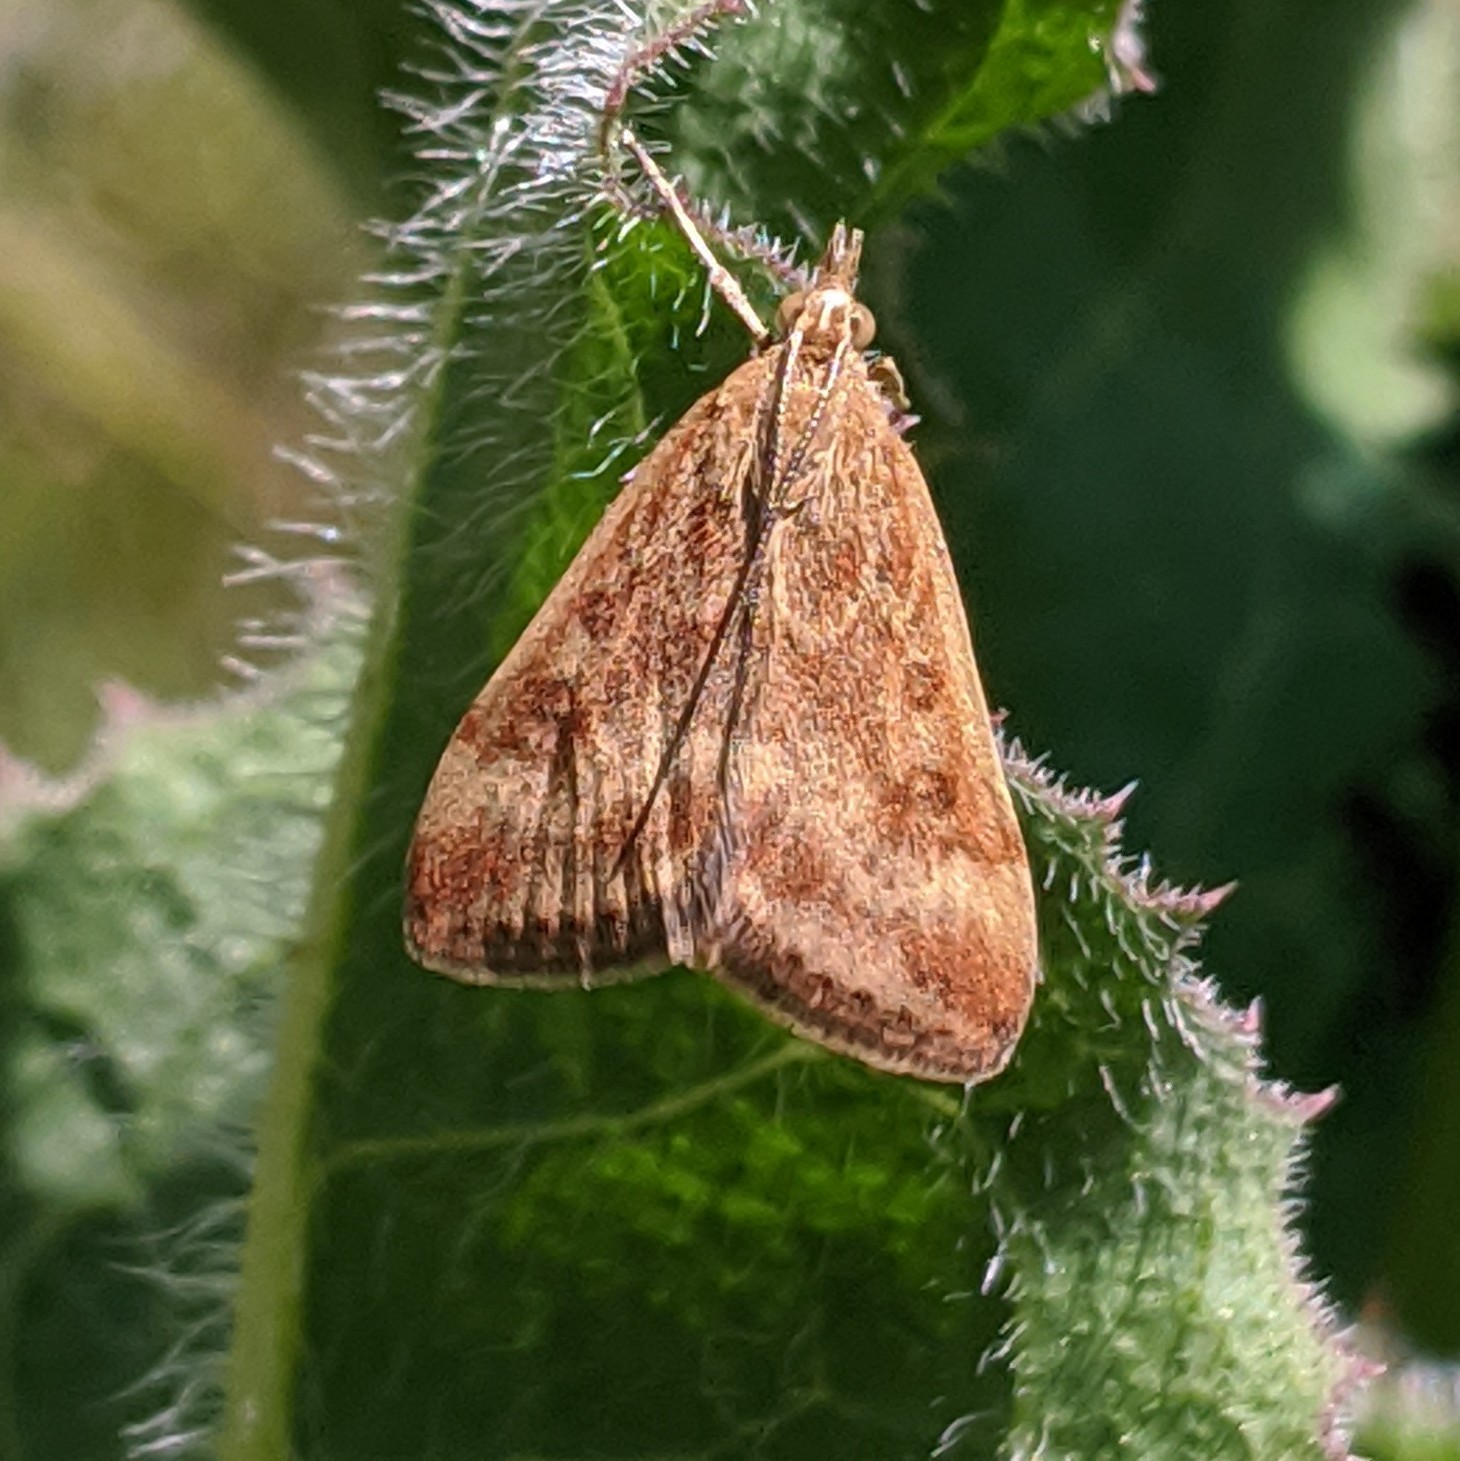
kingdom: Animalia
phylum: Arthropoda
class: Insecta
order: Lepidoptera
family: Crambidae
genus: Pyrausta
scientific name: Pyrausta despicata
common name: Straw-barred pearl
